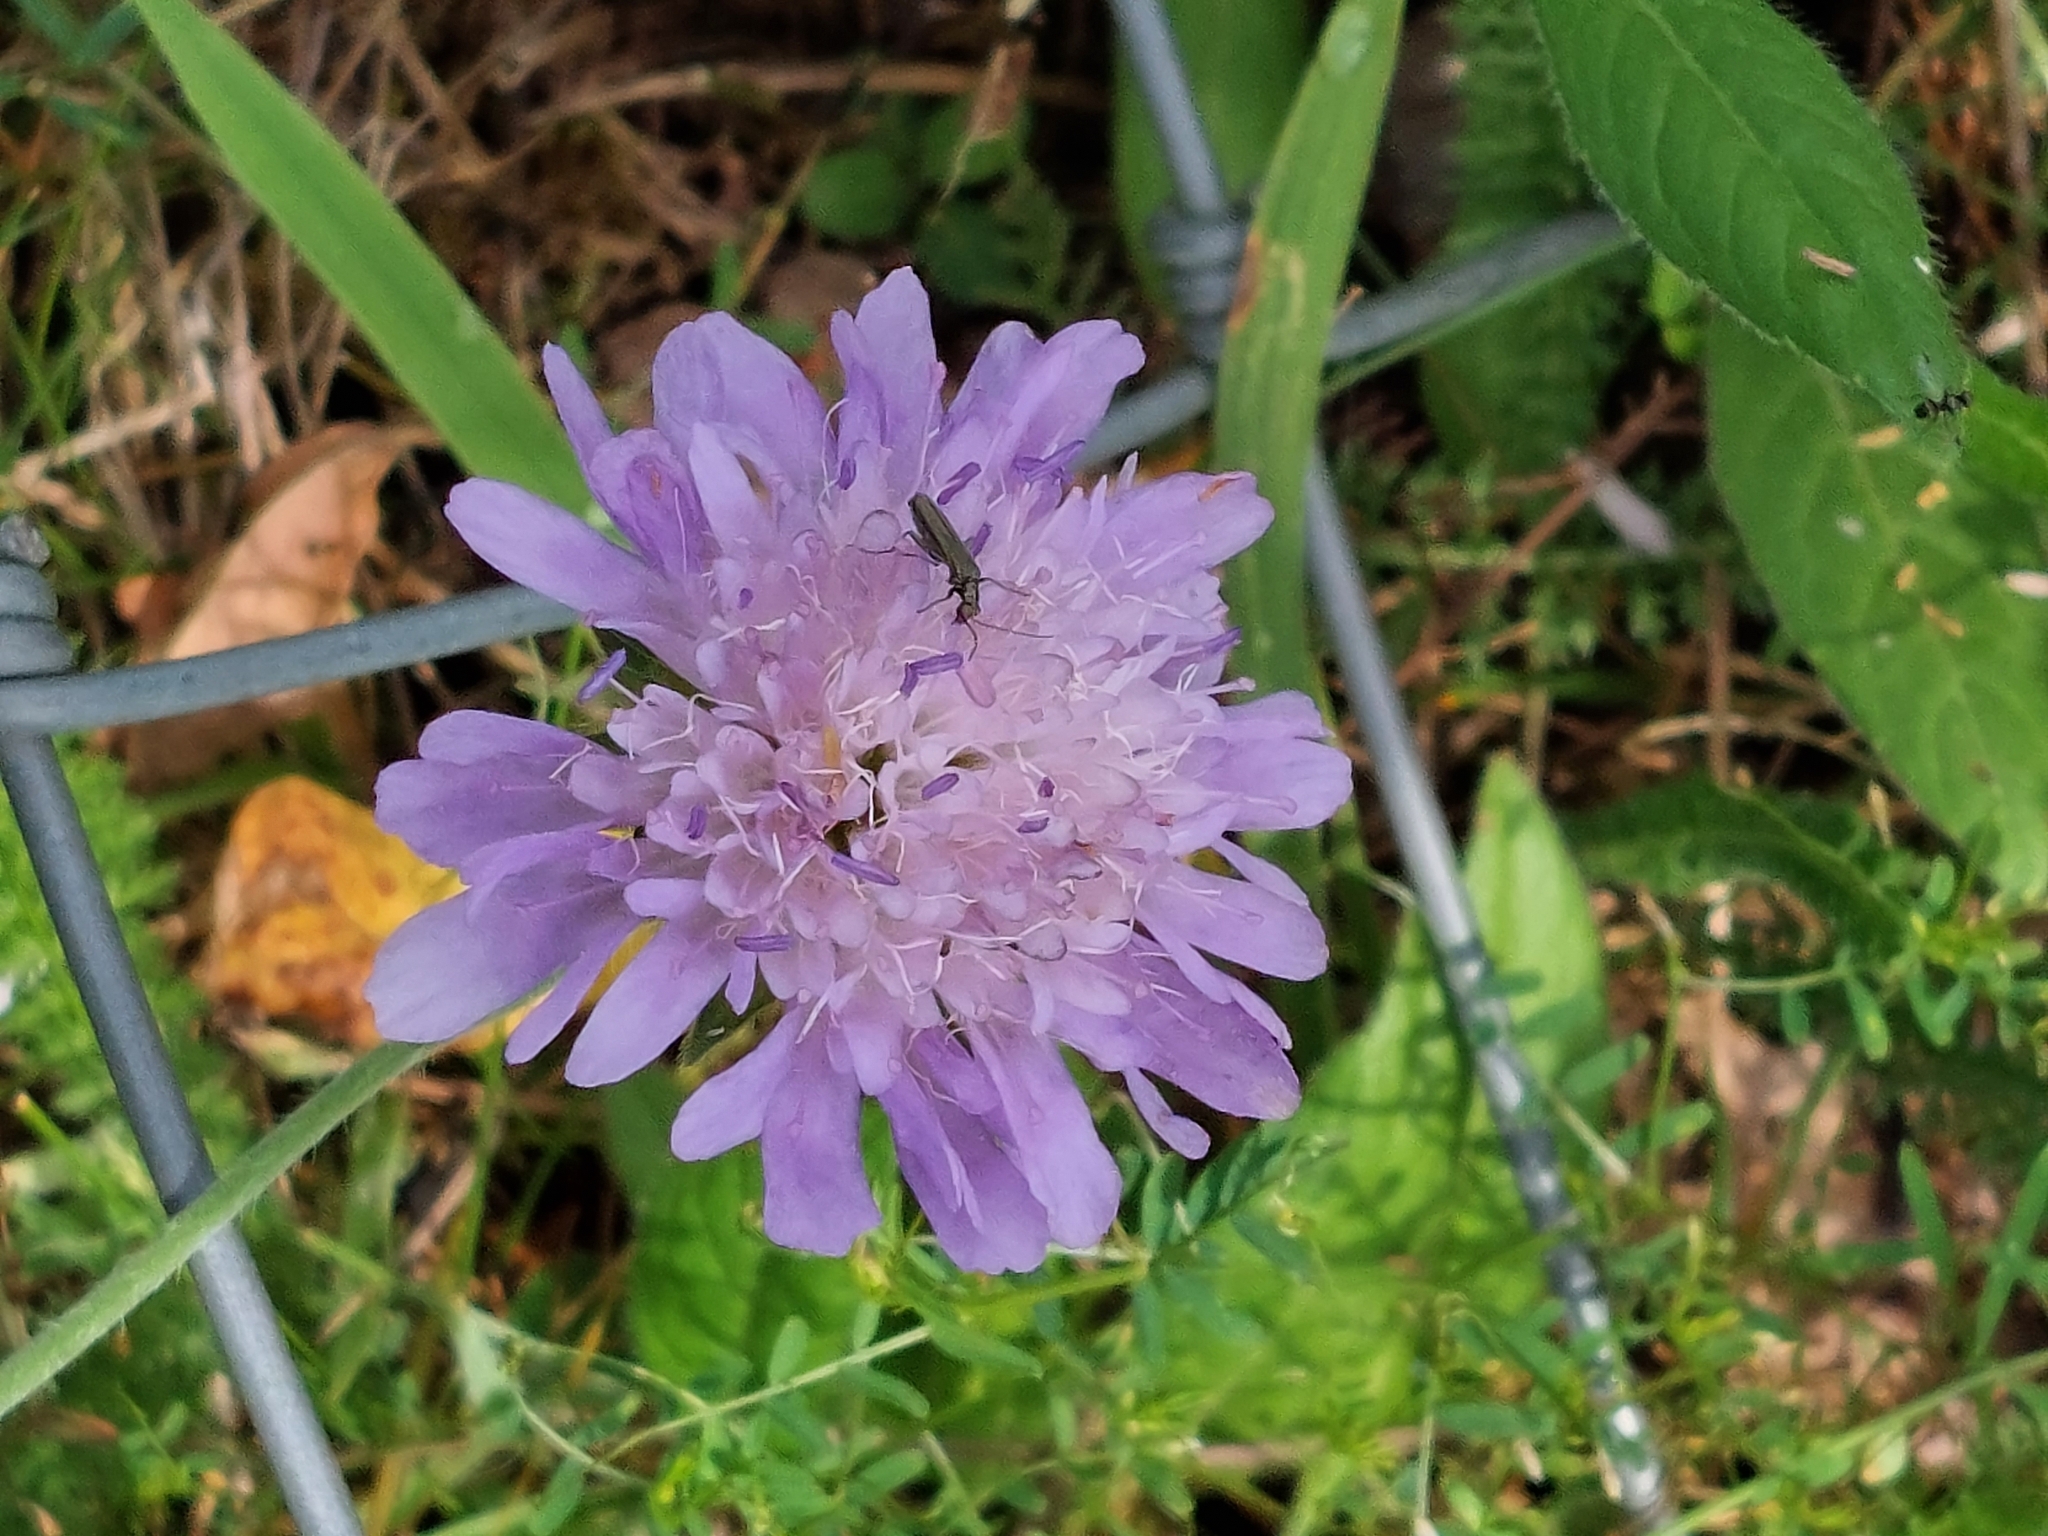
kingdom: Plantae
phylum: Tracheophyta
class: Magnoliopsida
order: Dipsacales
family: Caprifoliaceae
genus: Knautia
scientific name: Knautia arvensis
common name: Field scabiosa
